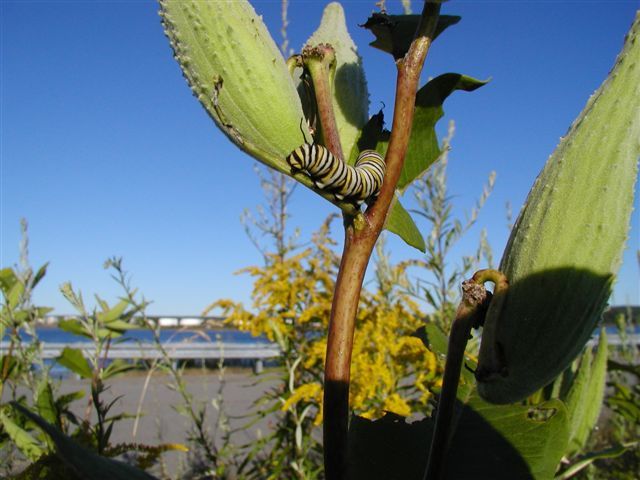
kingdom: Animalia
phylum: Arthropoda
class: Insecta
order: Lepidoptera
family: Nymphalidae
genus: Danaus
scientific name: Danaus plexippus
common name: Monarch
